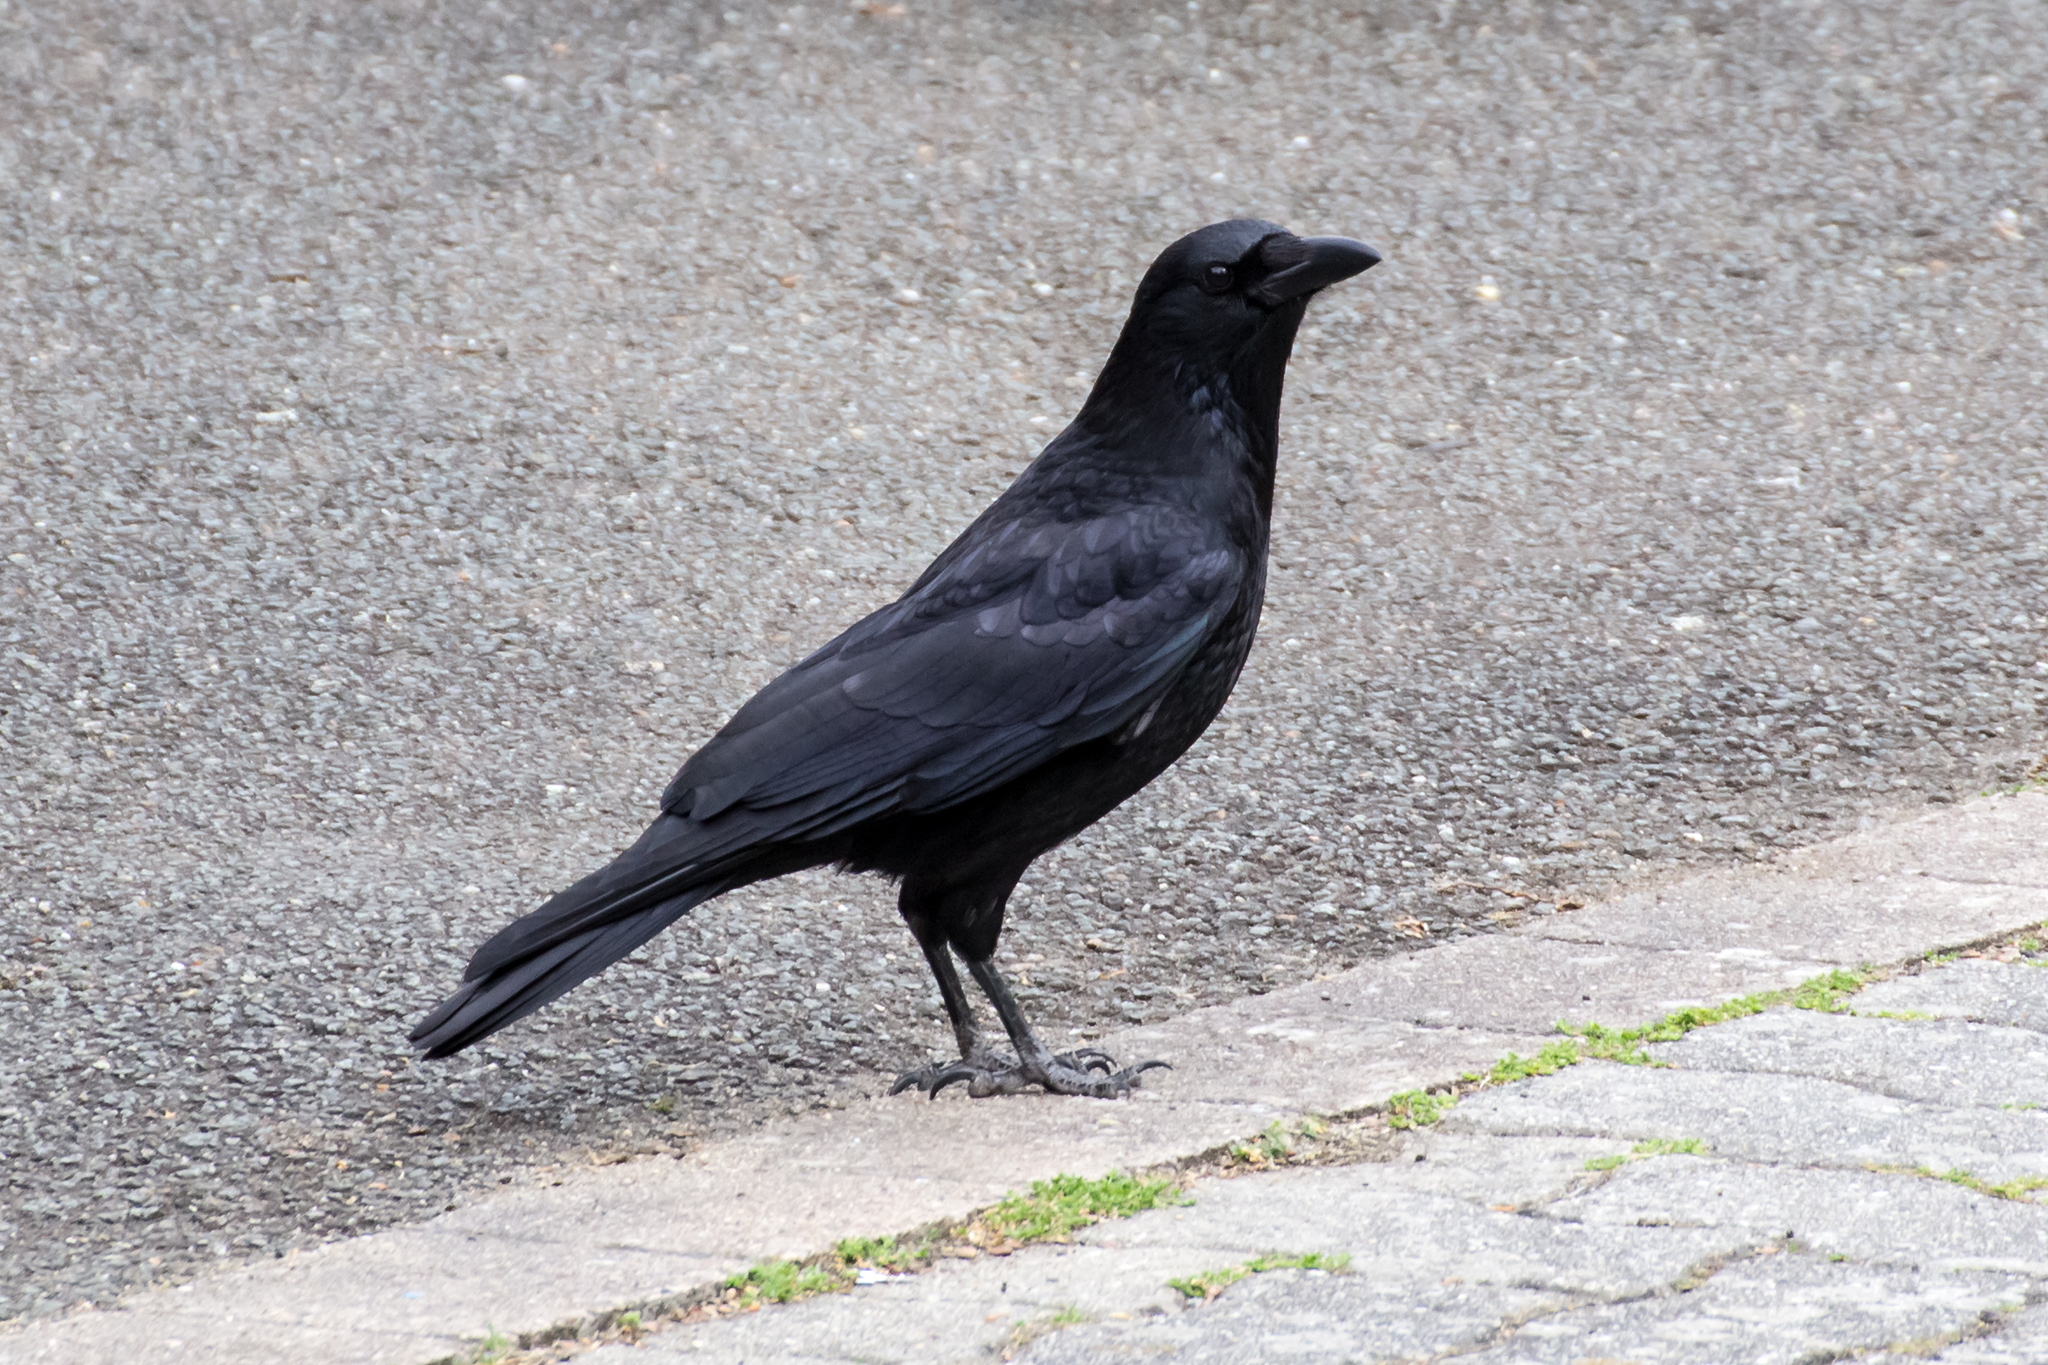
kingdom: Animalia
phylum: Chordata
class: Aves
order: Passeriformes
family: Corvidae
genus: Corvus
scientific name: Corvus corone
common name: Carrion crow
